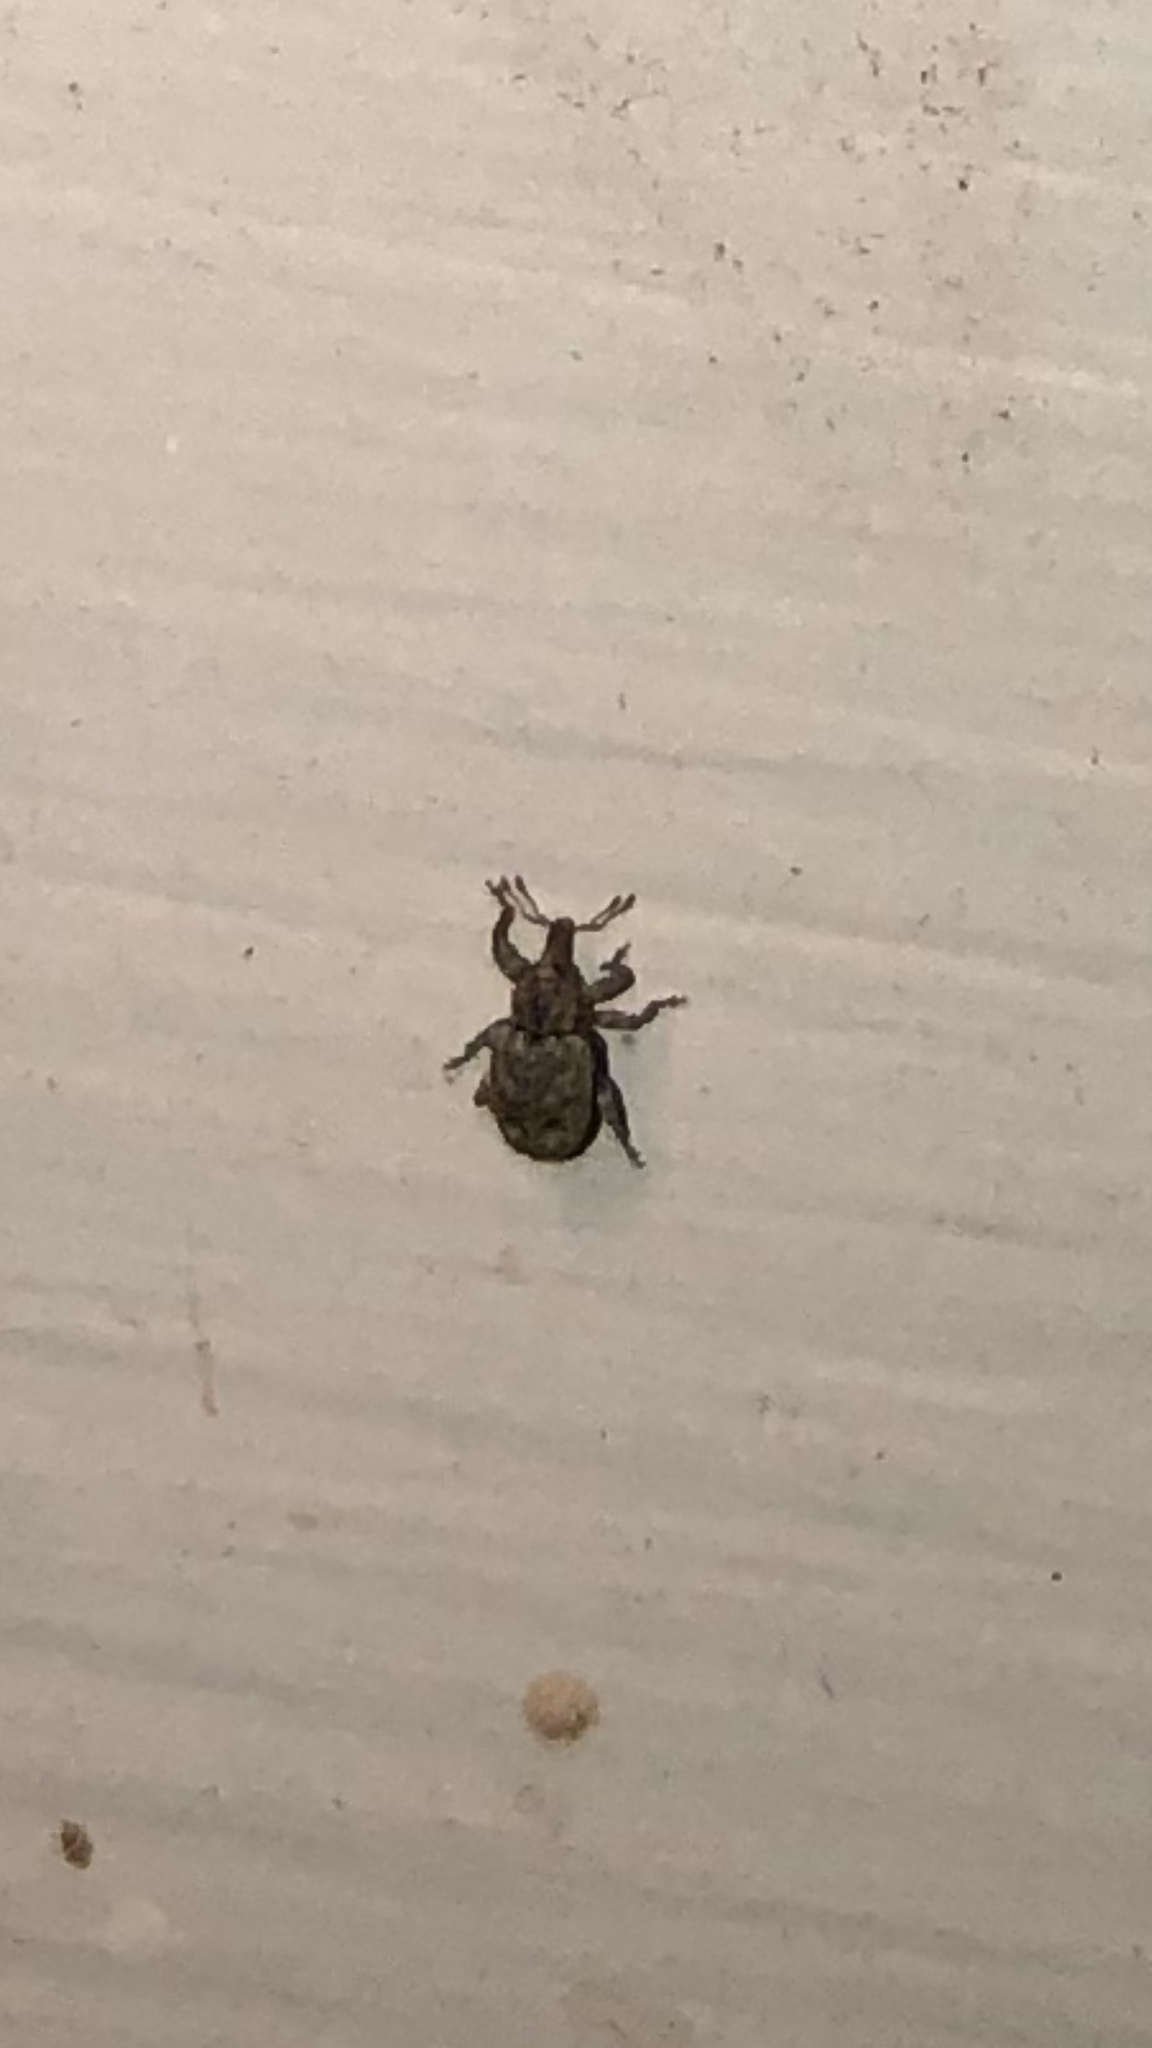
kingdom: Animalia
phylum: Arthropoda
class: Insecta
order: Coleoptera
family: Curculionidae
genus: Conotrachelus
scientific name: Conotrachelus recessus
